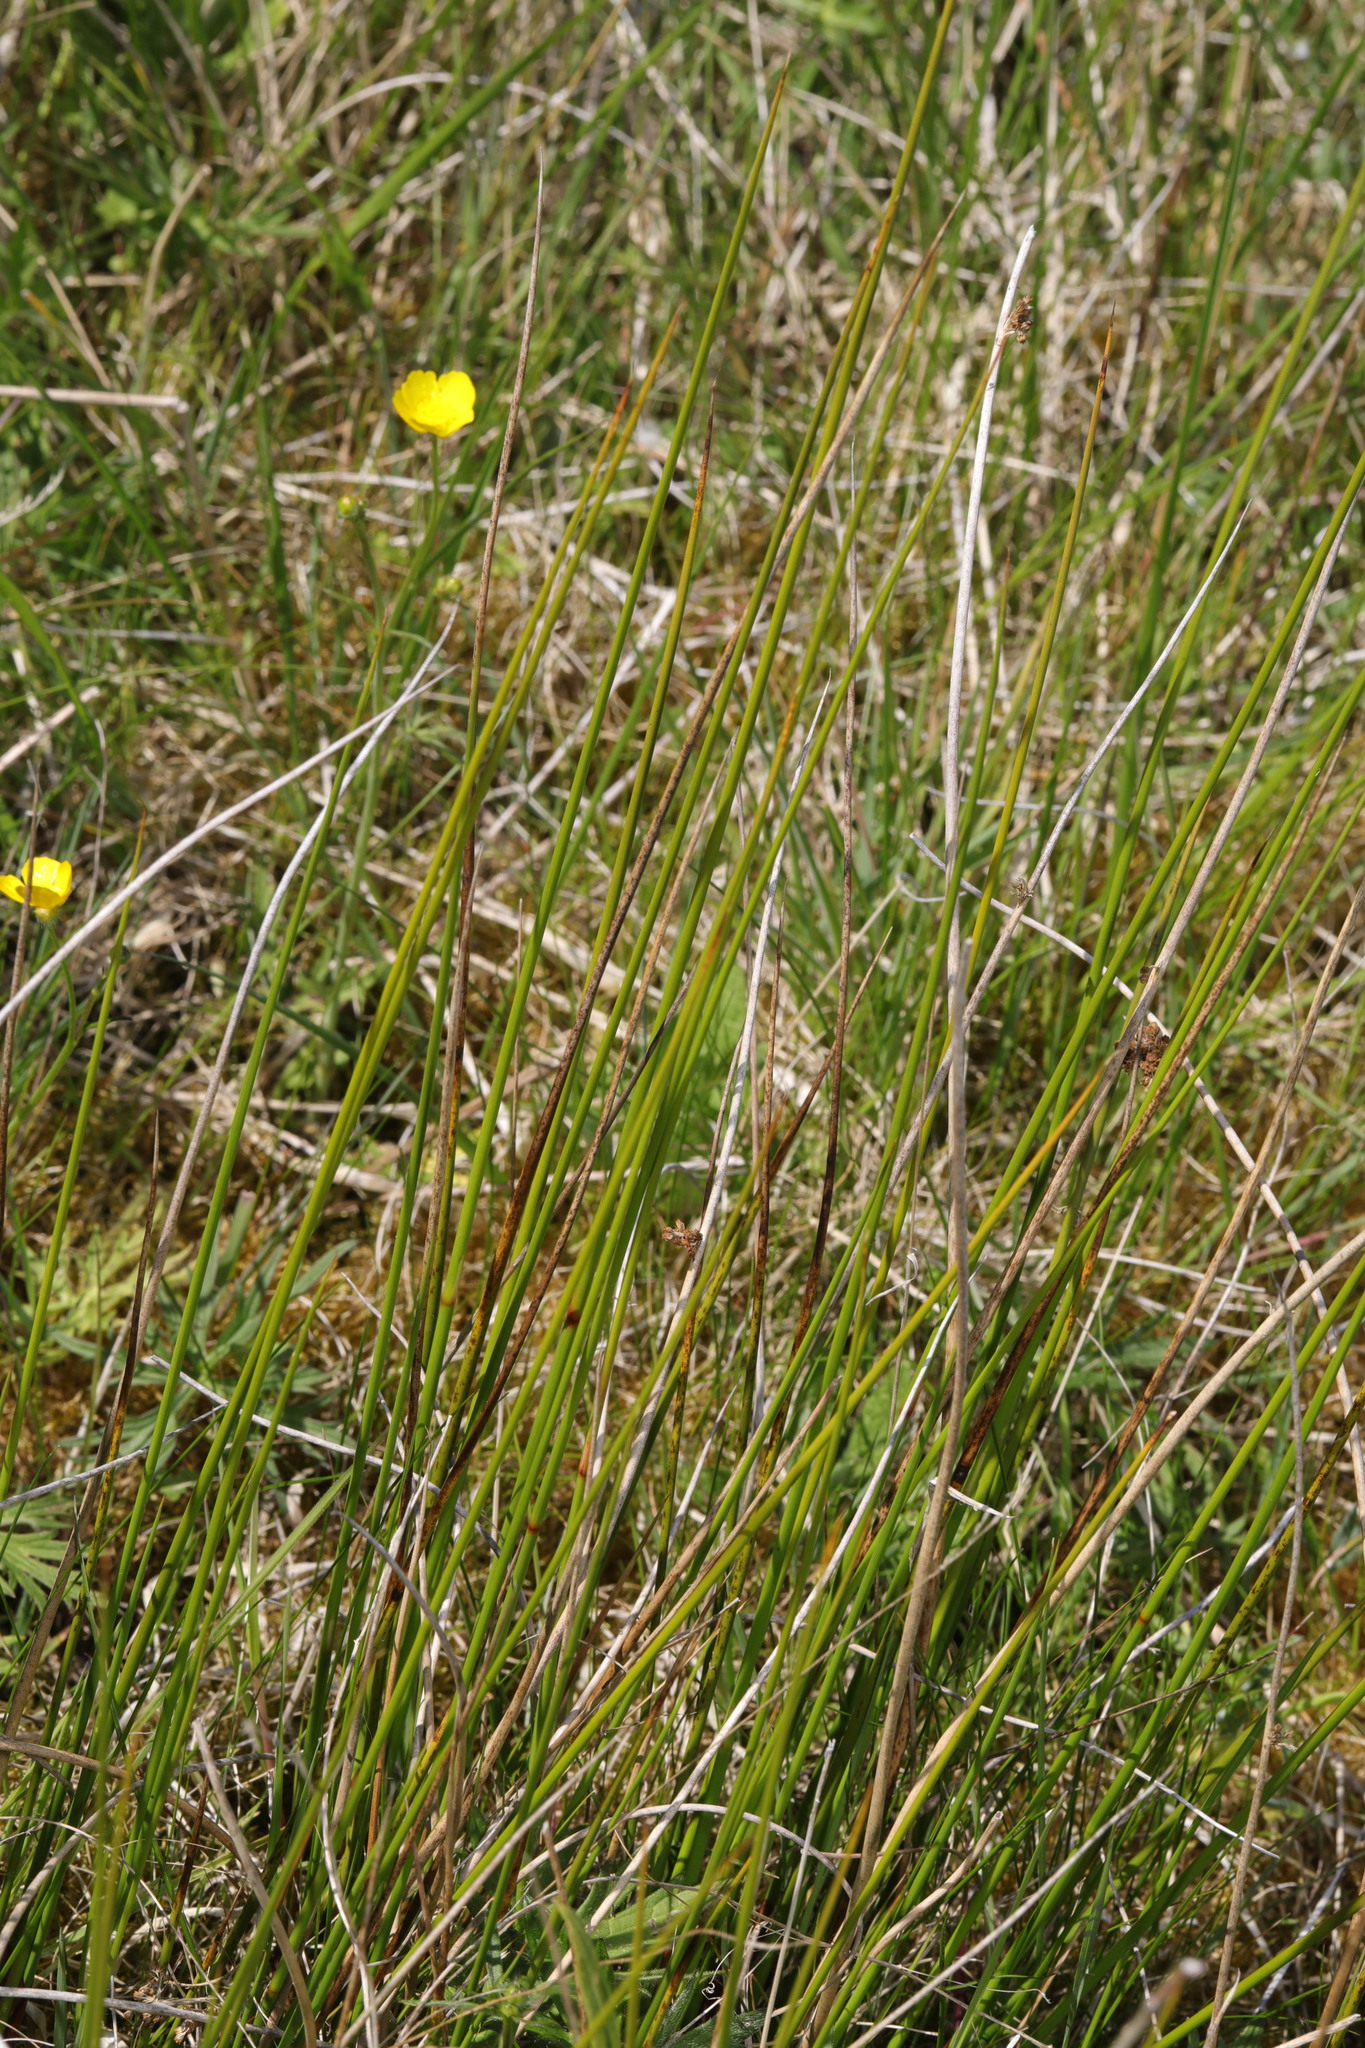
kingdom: Plantae
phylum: Tracheophyta
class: Liliopsida
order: Poales
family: Juncaceae
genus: Juncus
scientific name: Juncus effusus
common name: Soft rush
